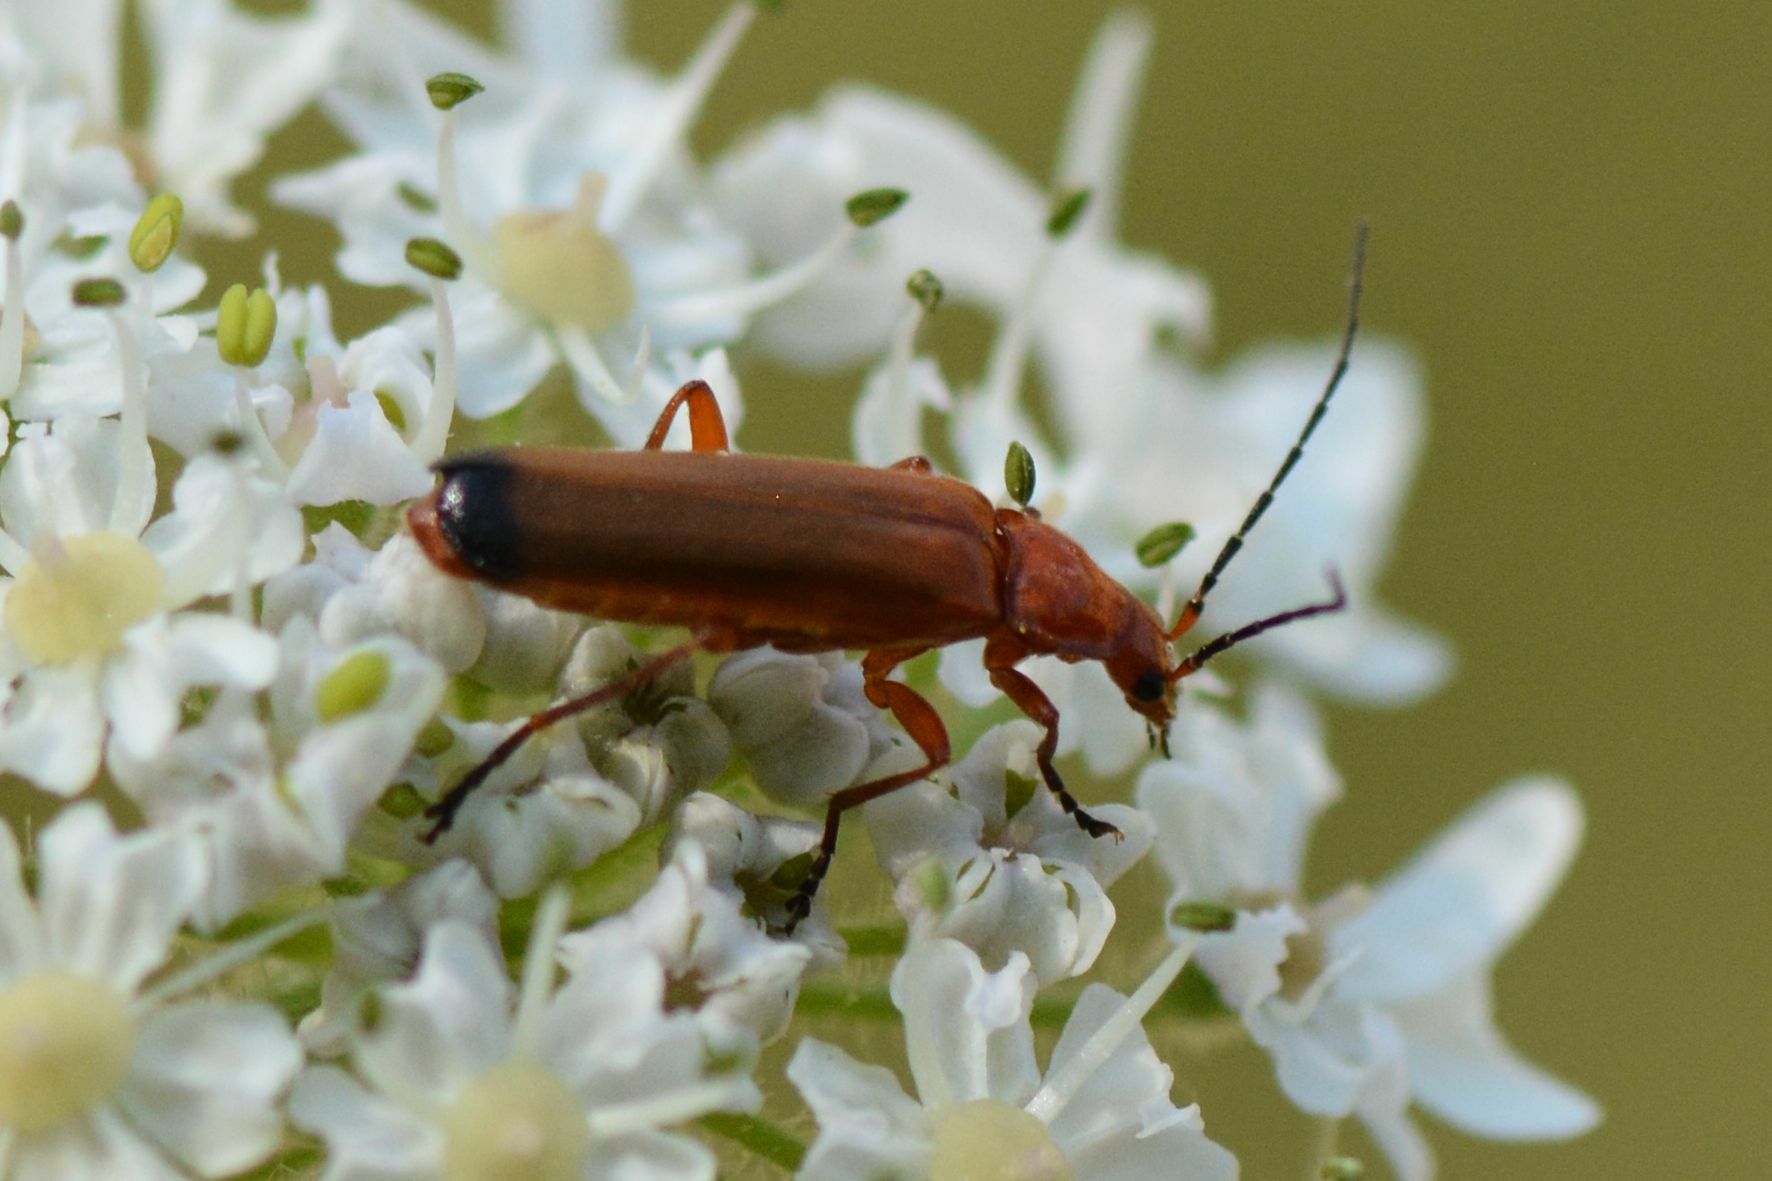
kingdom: Animalia
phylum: Arthropoda
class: Insecta
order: Coleoptera
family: Cantharidae
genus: Rhagonycha
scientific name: Rhagonycha fulva
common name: Common red soldier beetle
